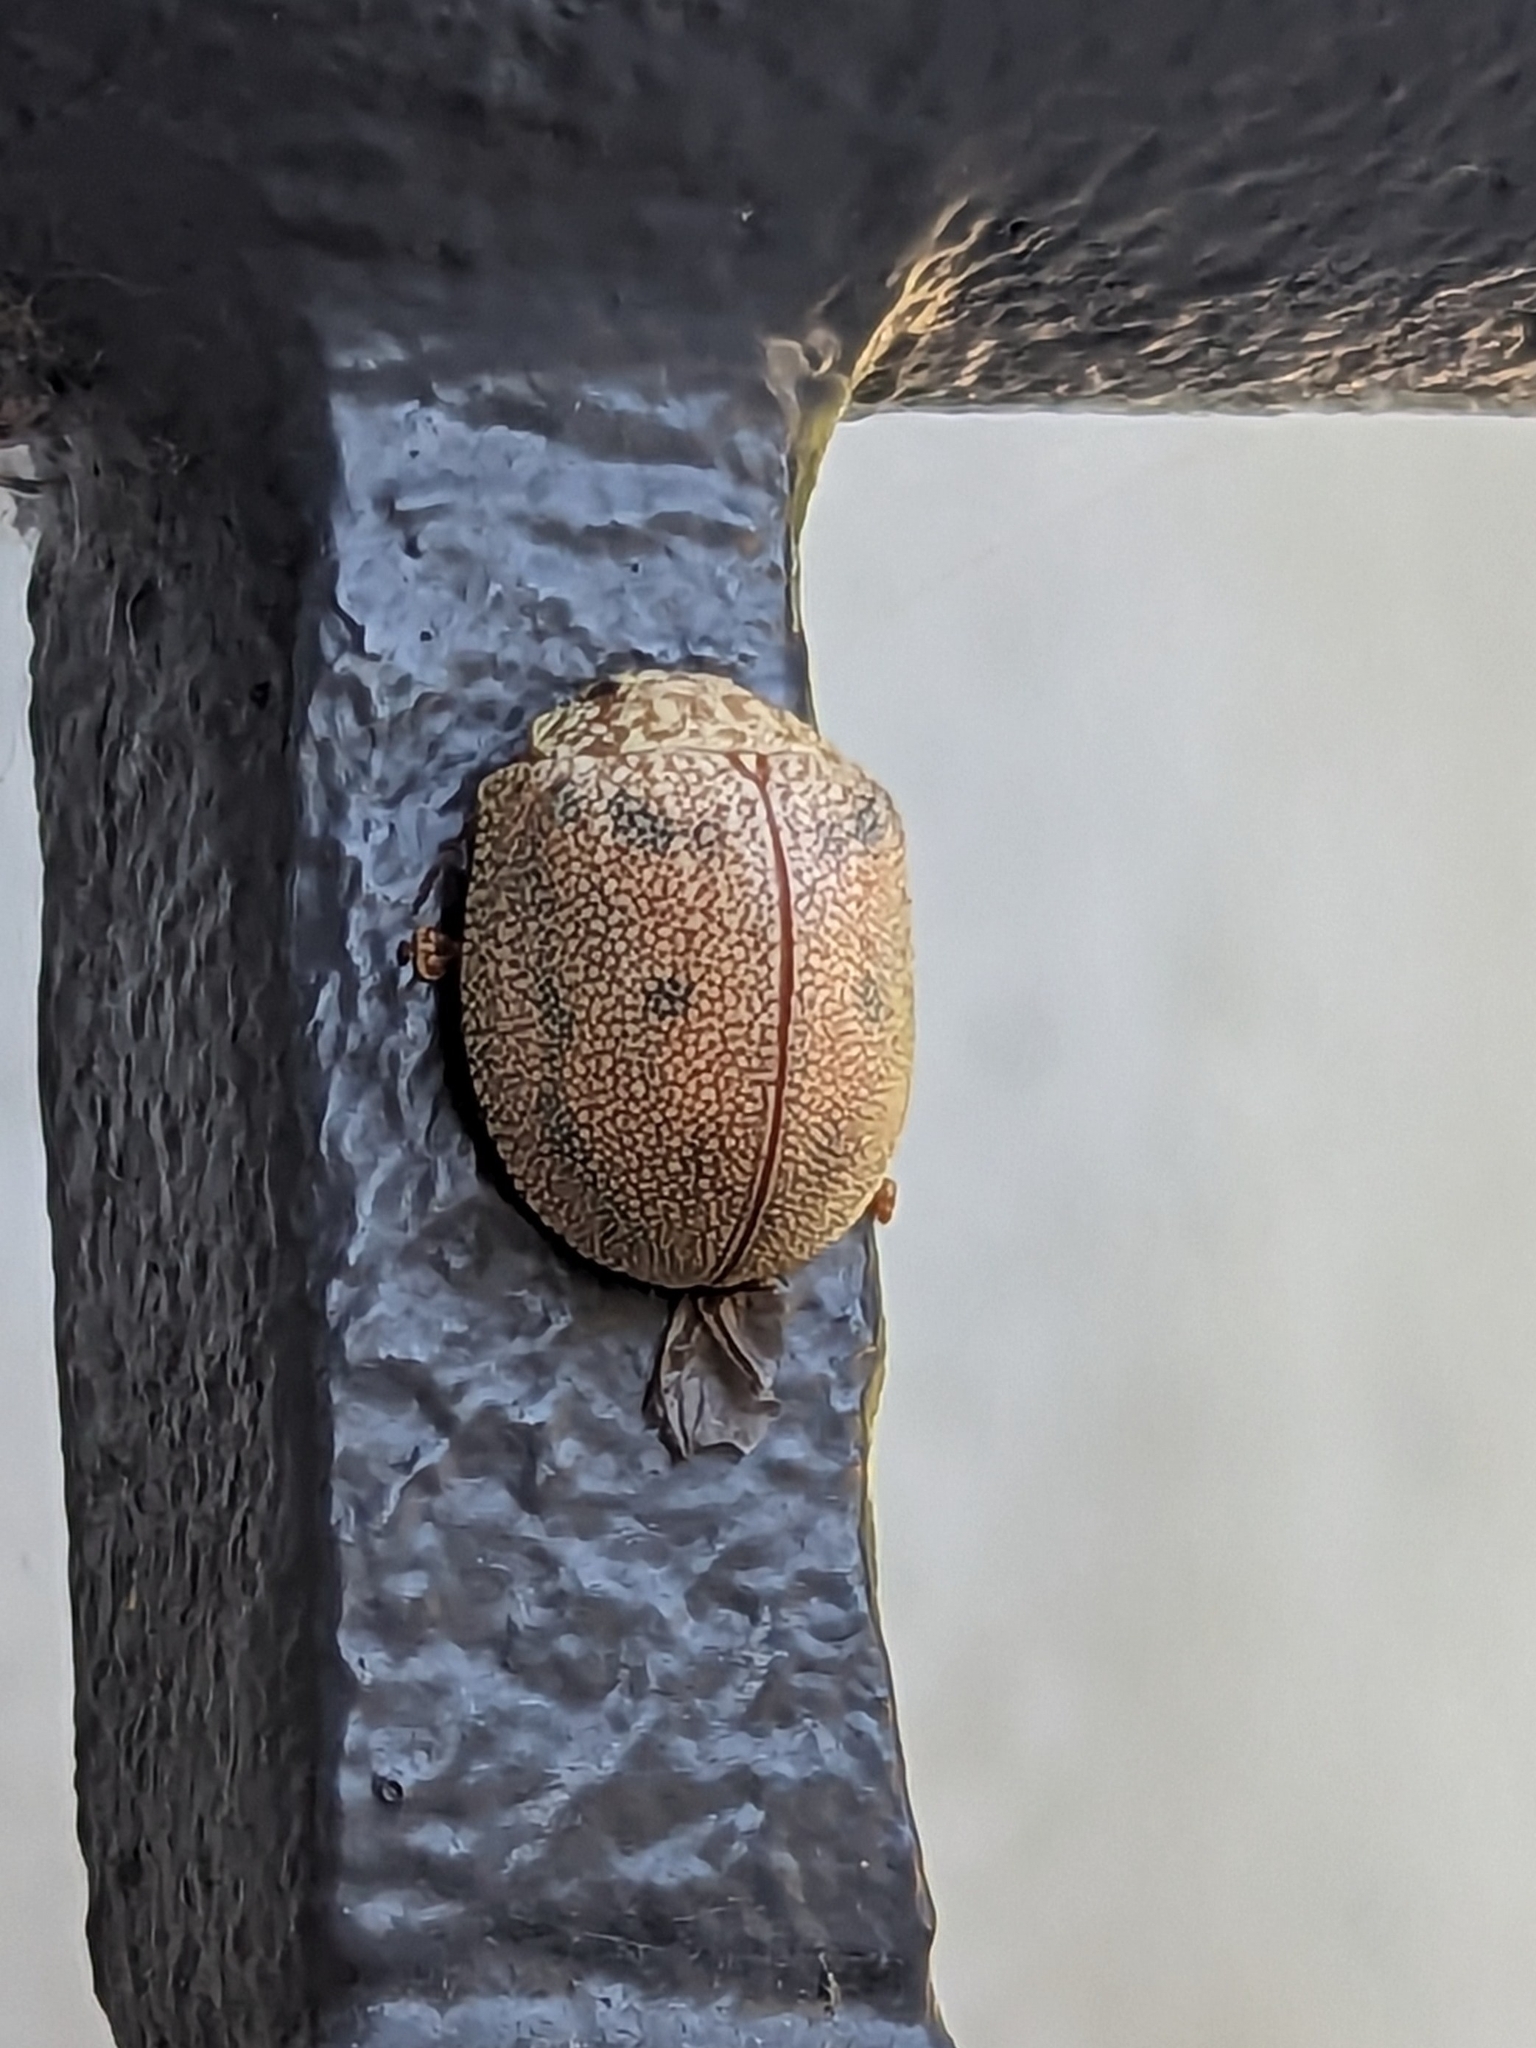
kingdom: Animalia
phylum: Arthropoda
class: Insecta
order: Coleoptera
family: Chrysomelidae
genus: Paropsis
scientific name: Paropsis
